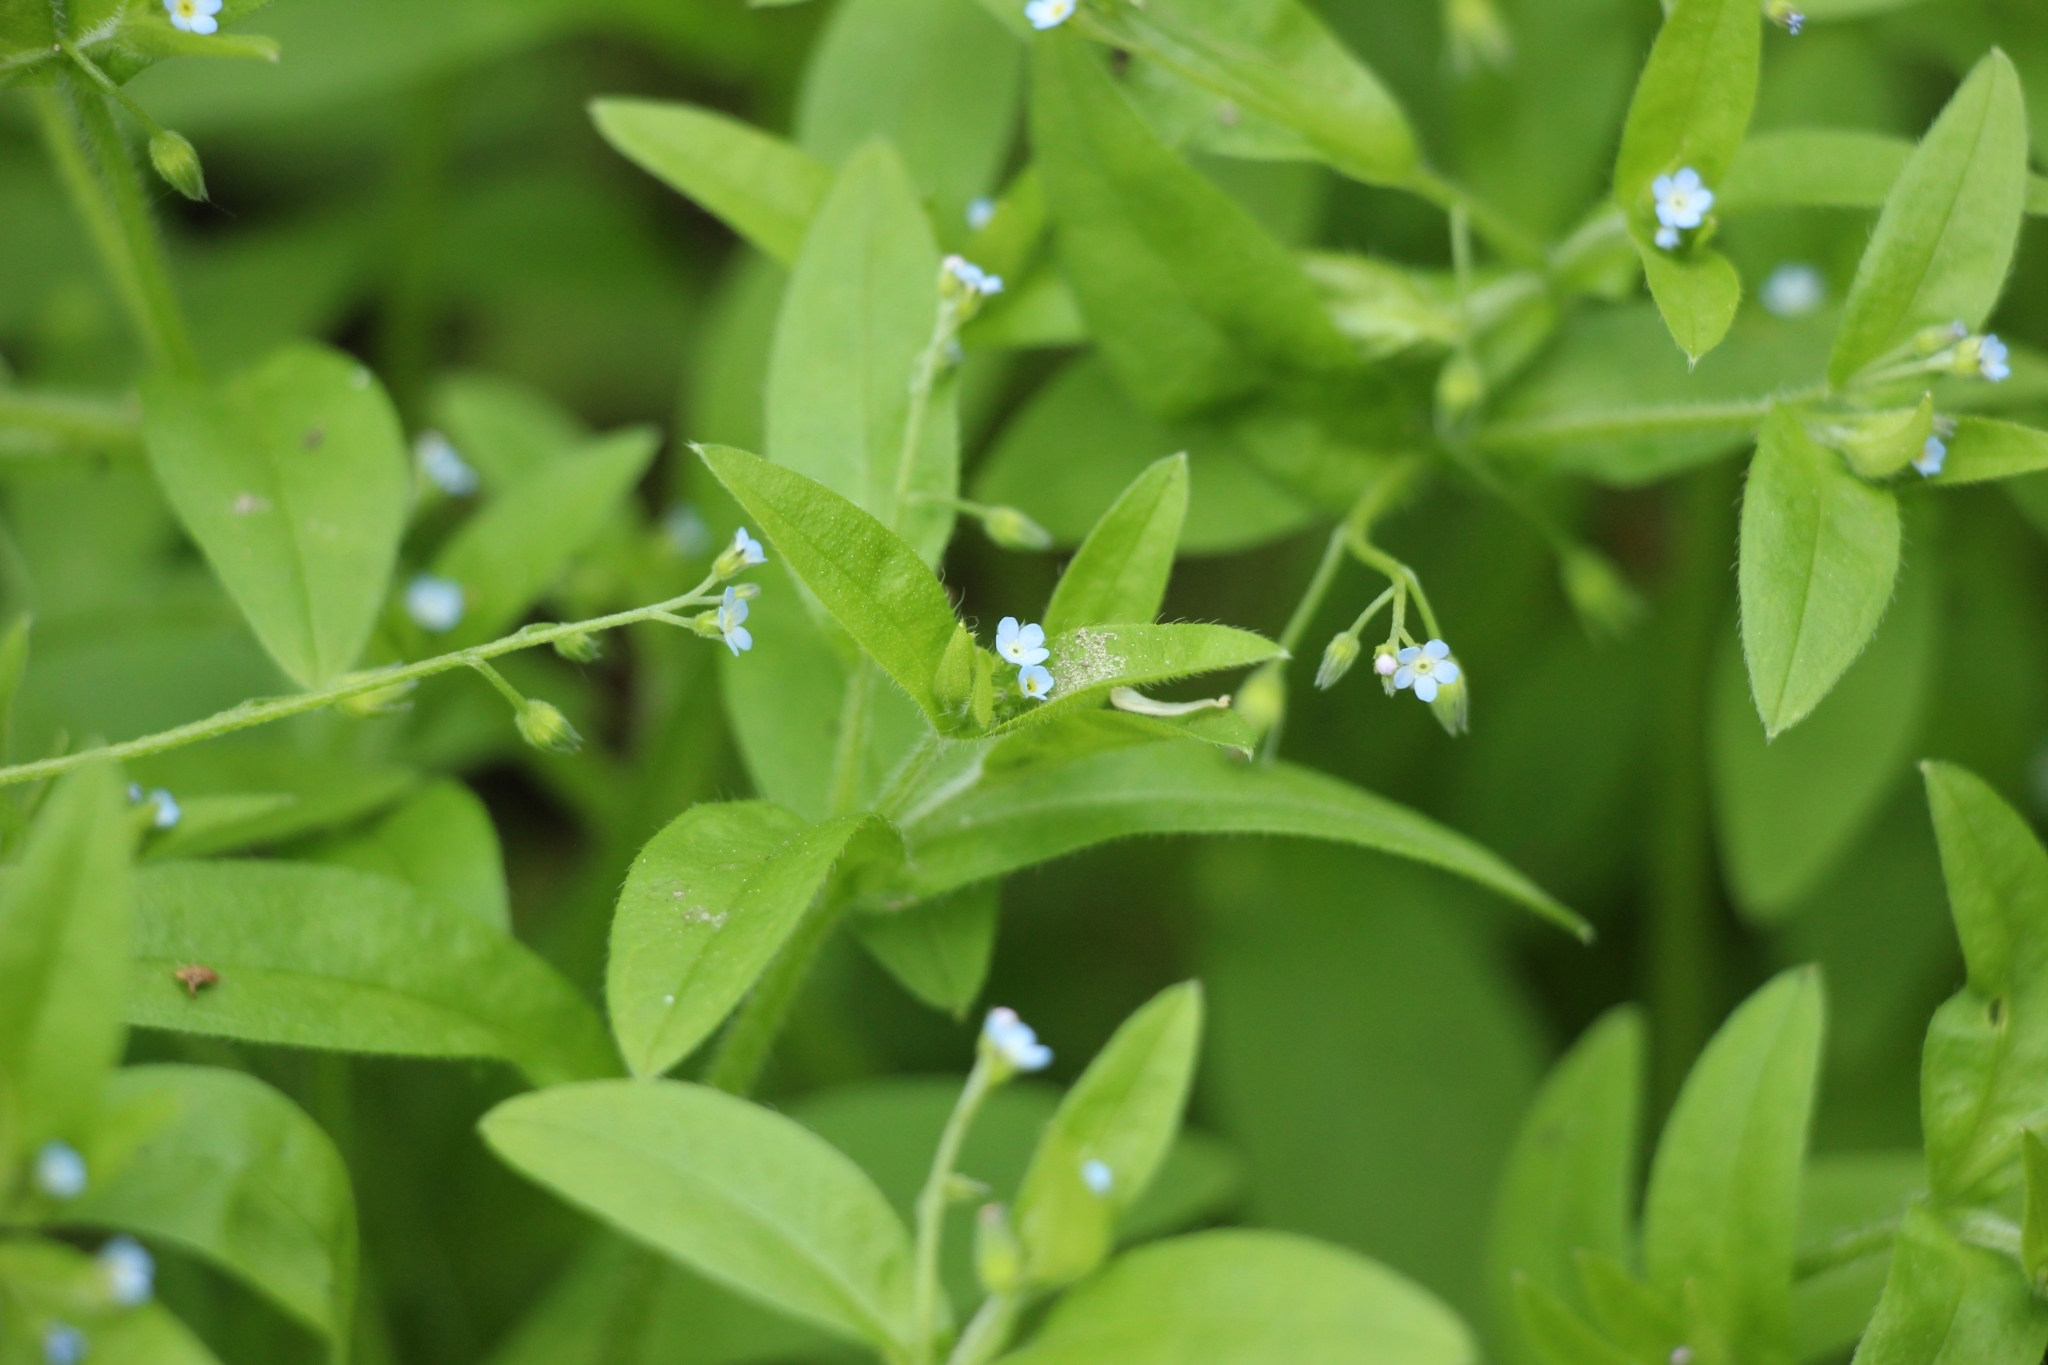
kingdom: Plantae
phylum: Tracheophyta
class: Magnoliopsida
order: Boraginales
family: Boraginaceae
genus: Myosotis
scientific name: Myosotis sparsiflora
